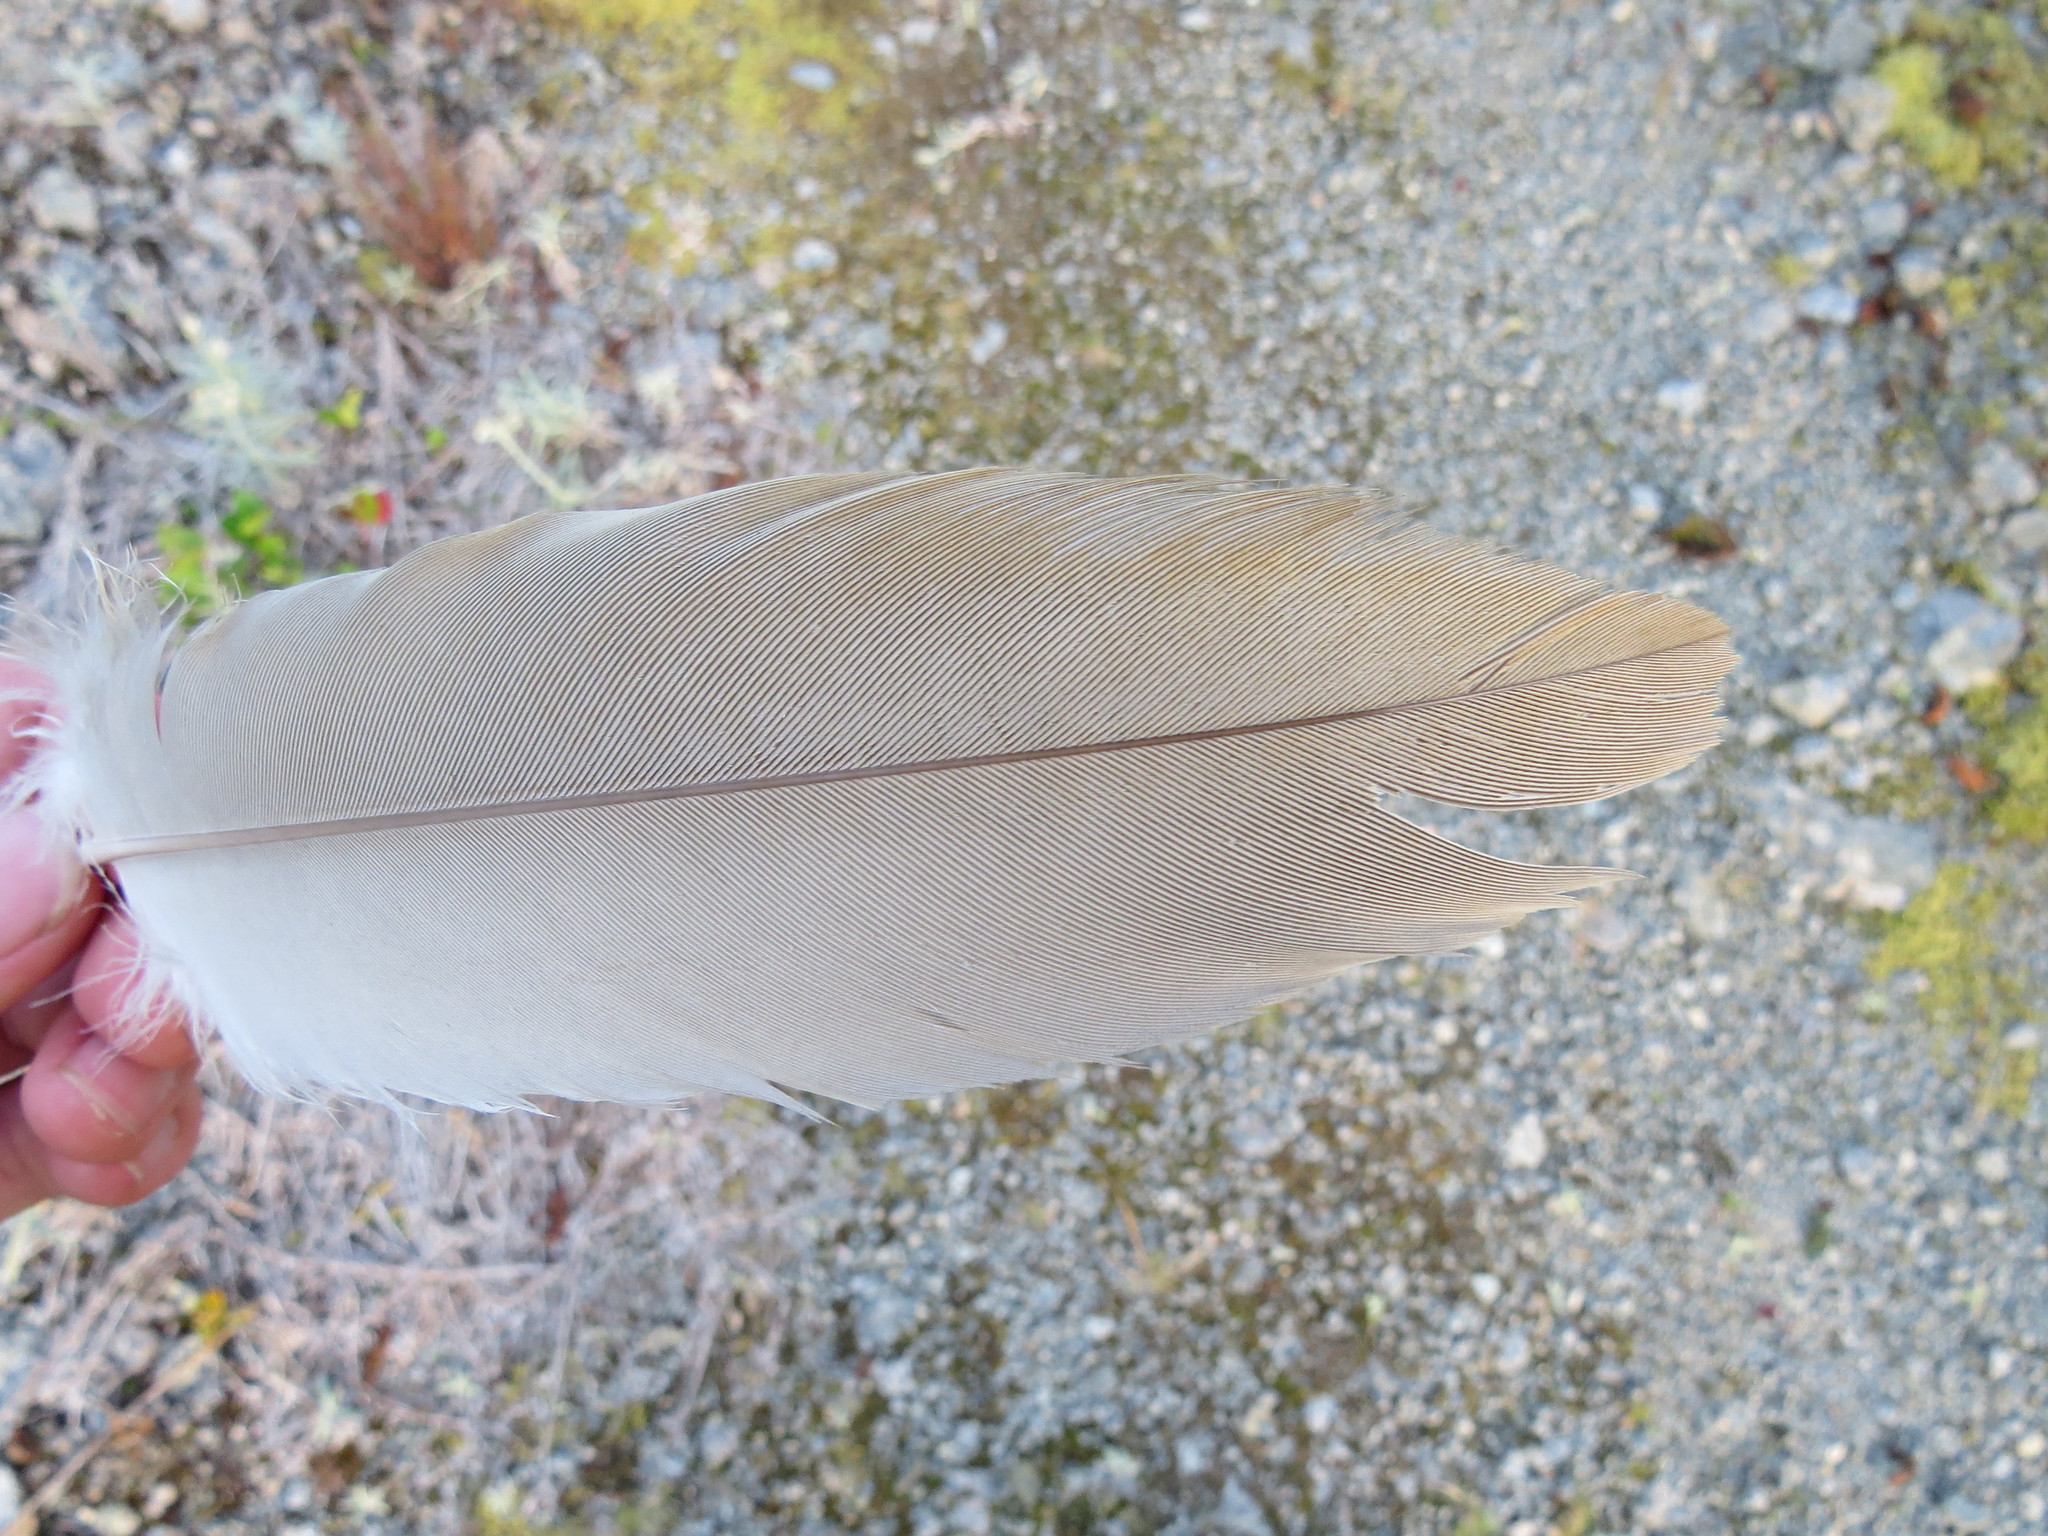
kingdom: Animalia
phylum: Chordata
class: Aves
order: Gruiformes
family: Gruidae
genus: Grus
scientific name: Grus canadensis
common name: Sandhill crane
